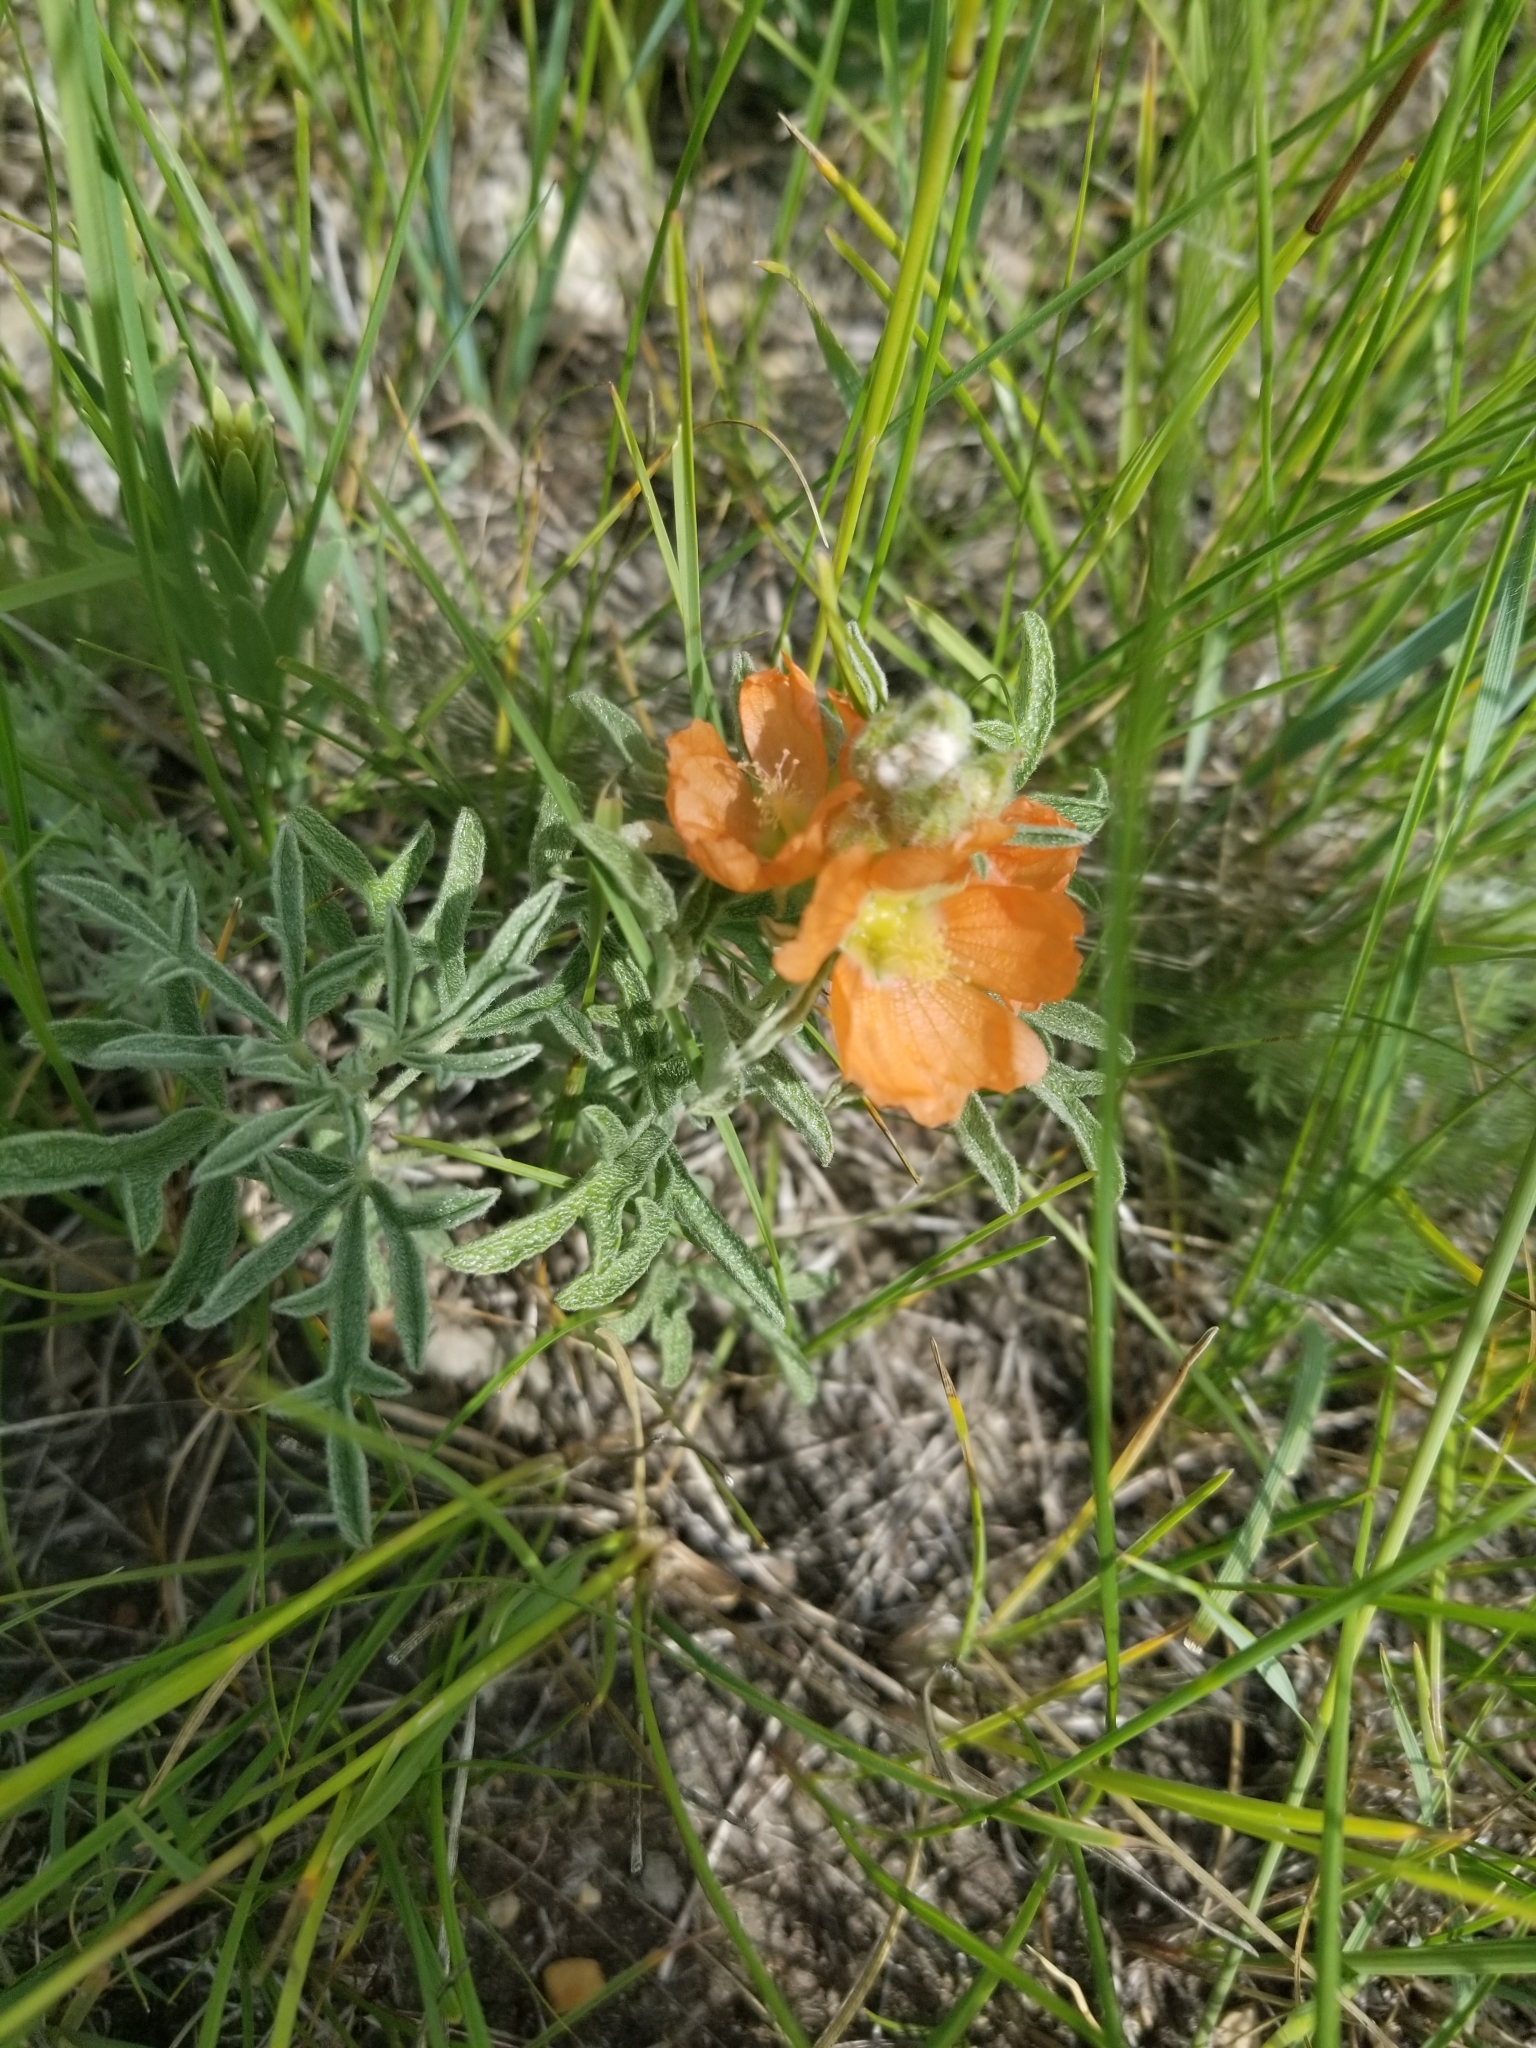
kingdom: Plantae
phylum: Tracheophyta
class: Magnoliopsida
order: Malvales
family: Malvaceae
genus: Sphaeralcea
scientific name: Sphaeralcea coccinea
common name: Moss-rose
